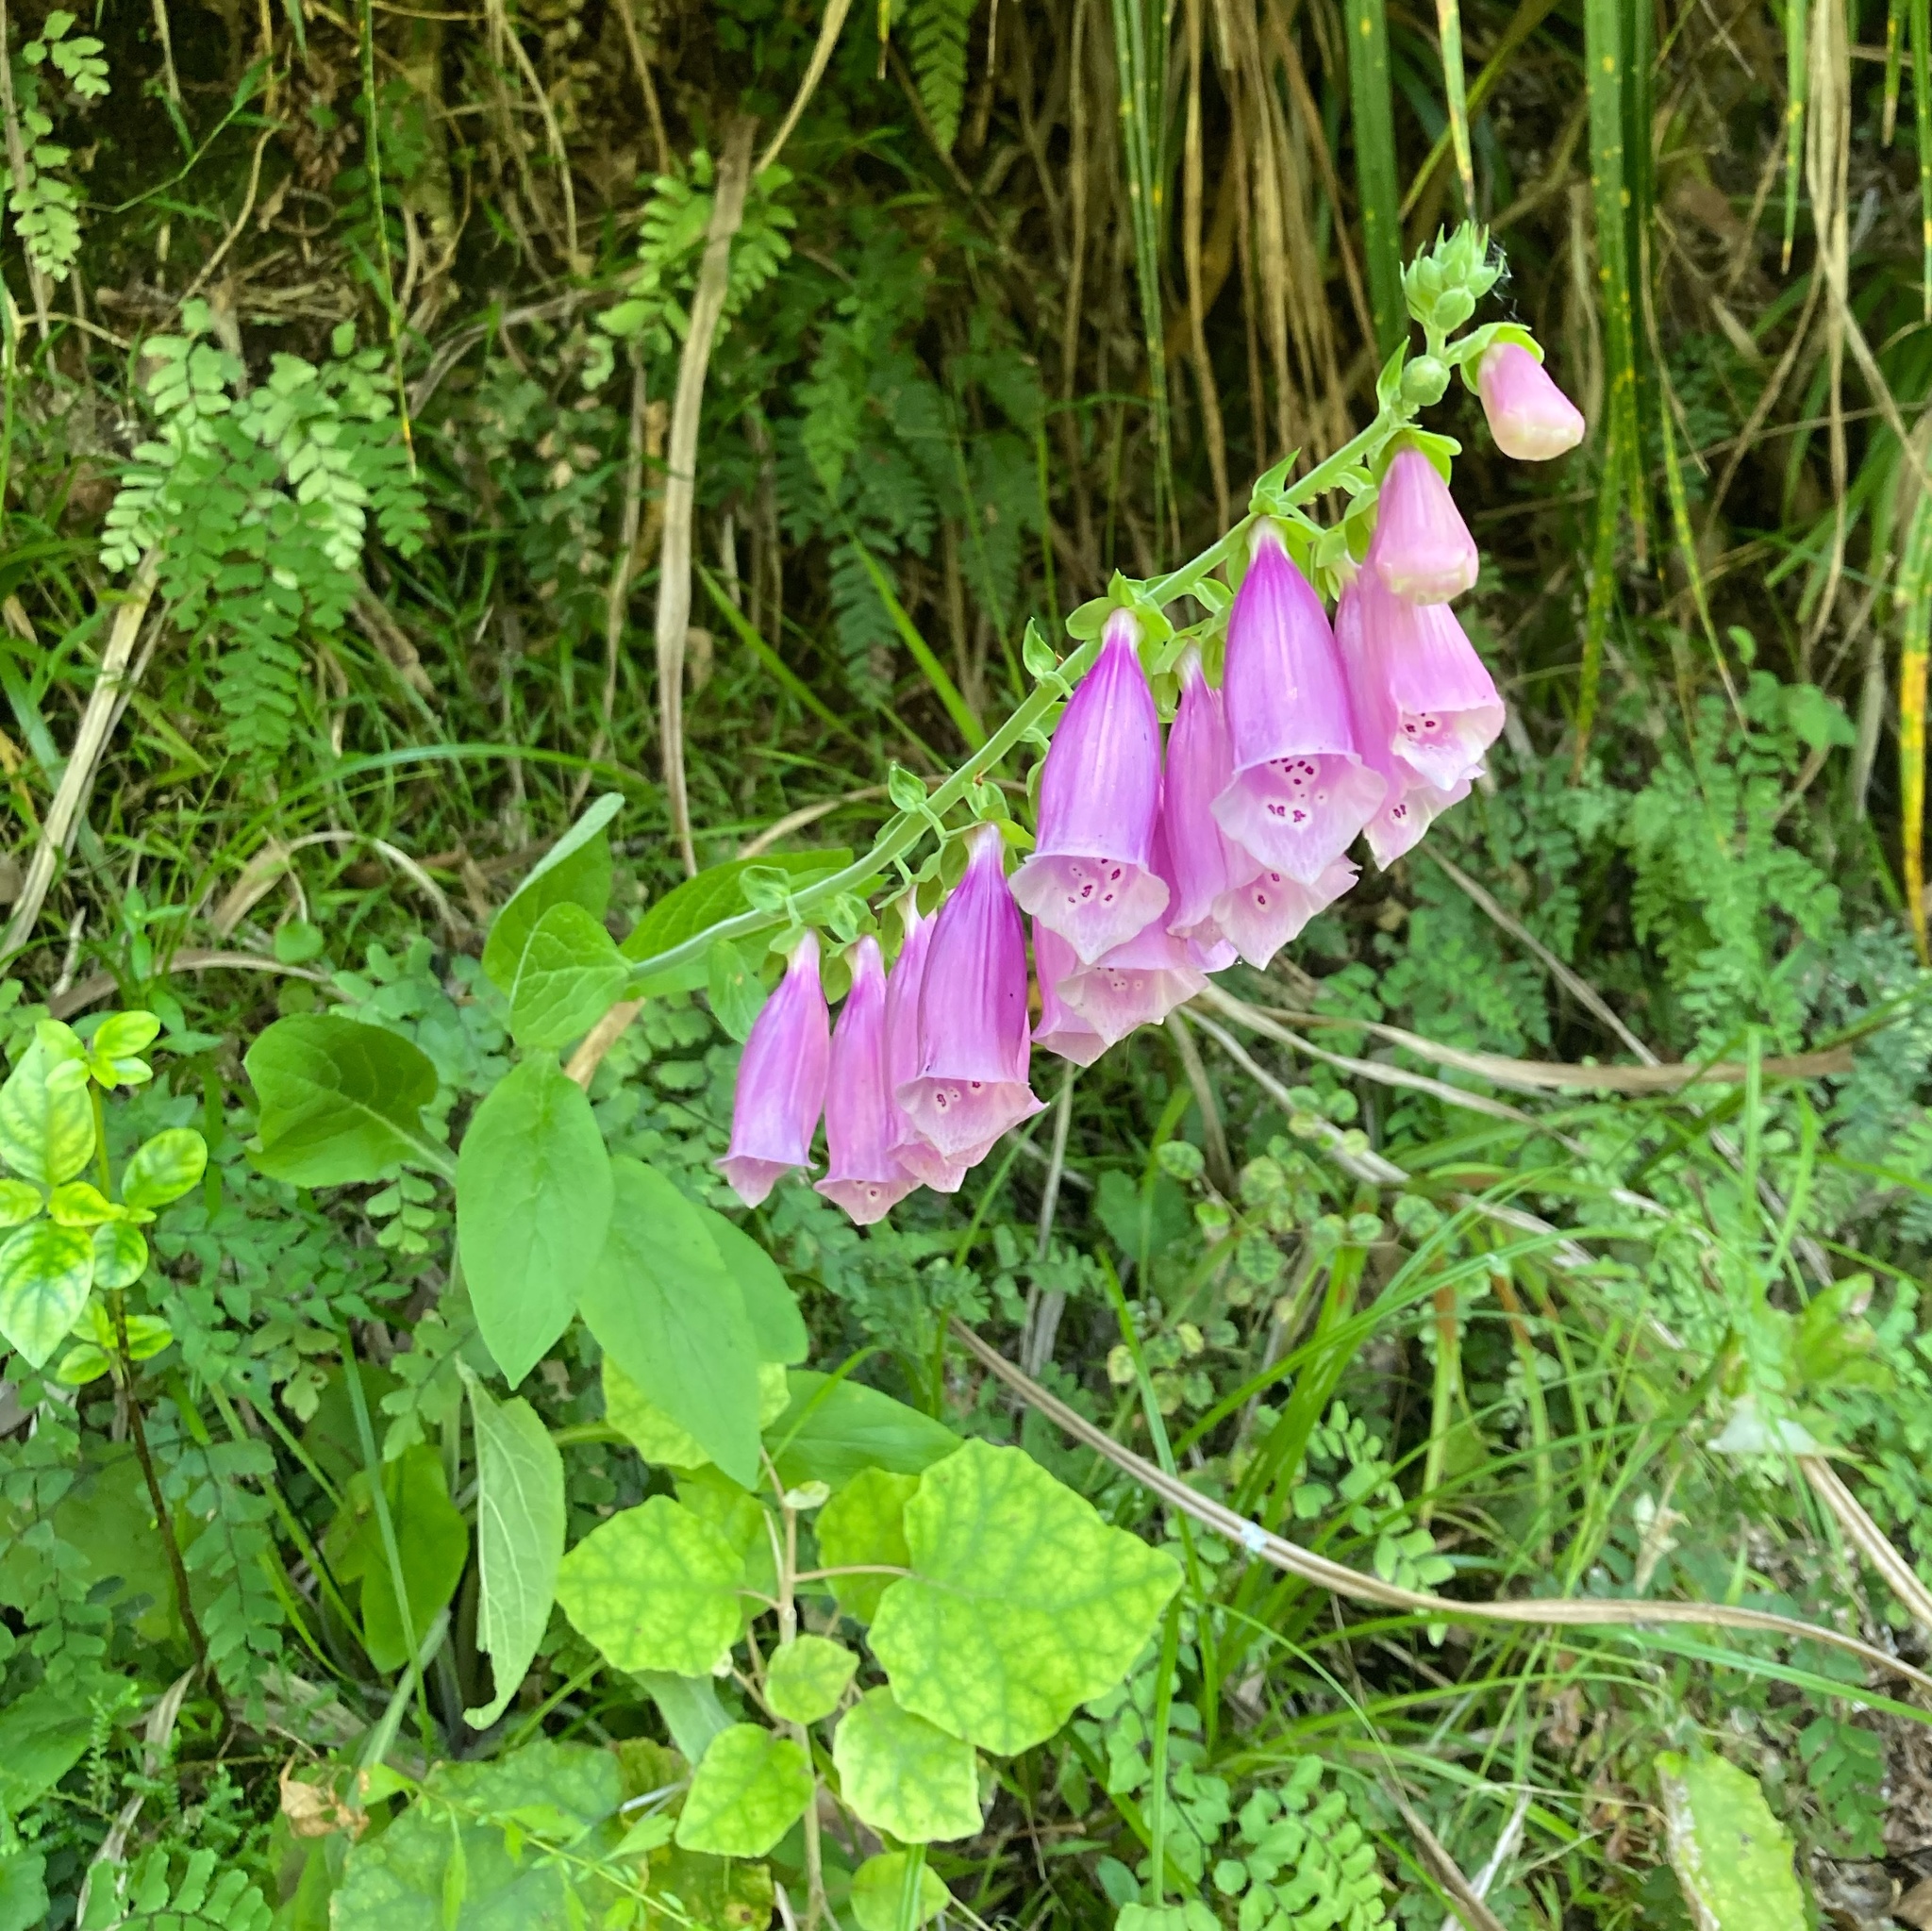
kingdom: Plantae
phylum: Tracheophyta
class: Magnoliopsida
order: Lamiales
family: Plantaginaceae
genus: Digitalis
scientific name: Digitalis purpurea
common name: Foxglove
